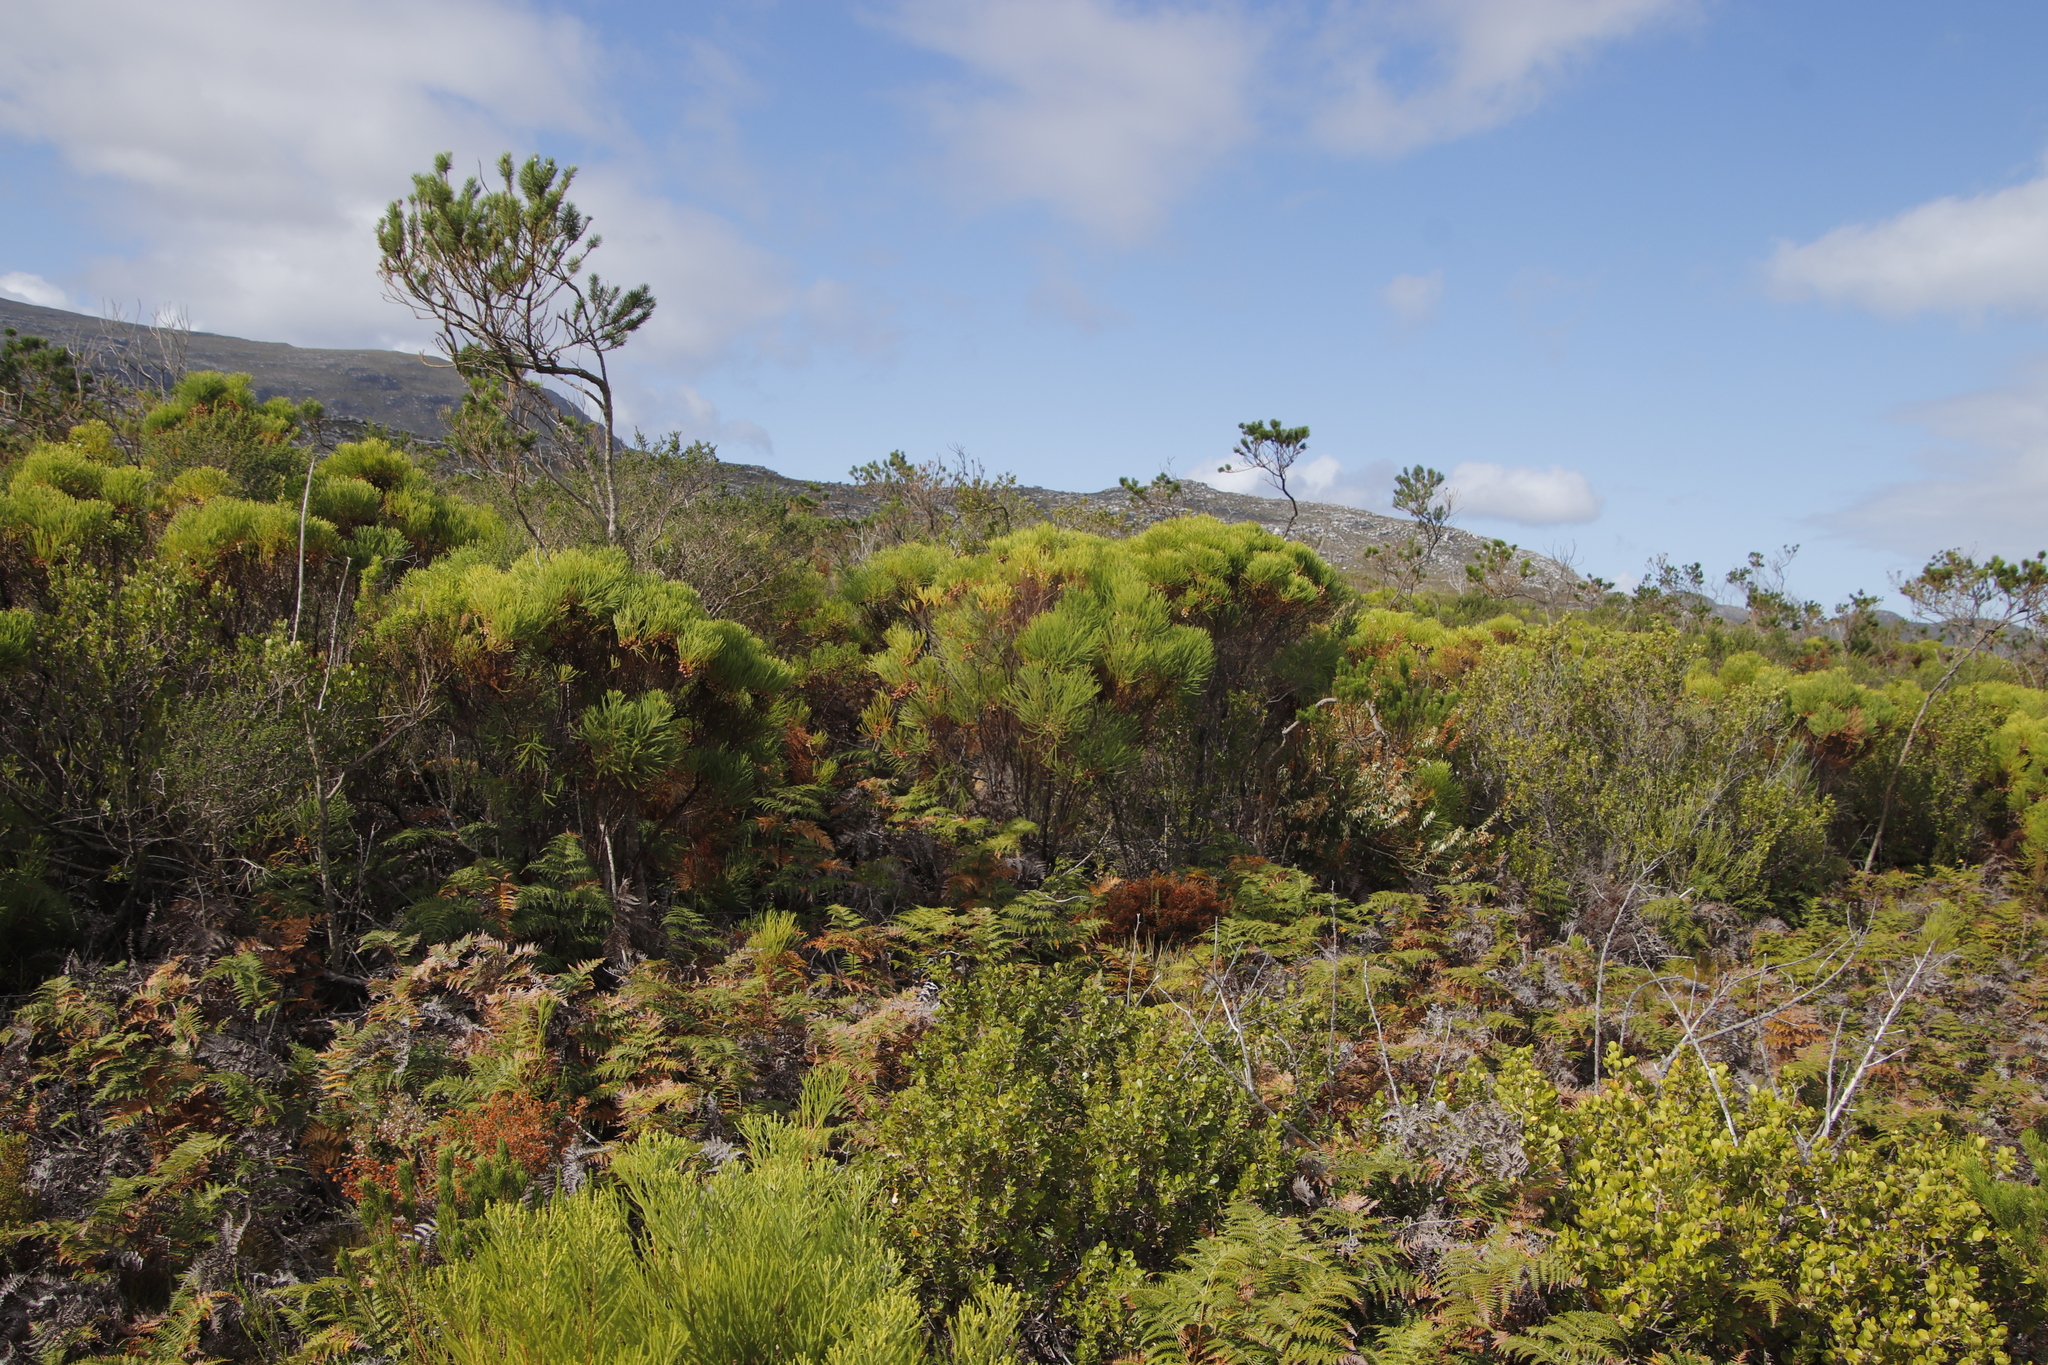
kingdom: Plantae
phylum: Tracheophyta
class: Magnoliopsida
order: Bruniales
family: Bruniaceae
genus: Berzelia
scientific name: Berzelia lanuginosa
